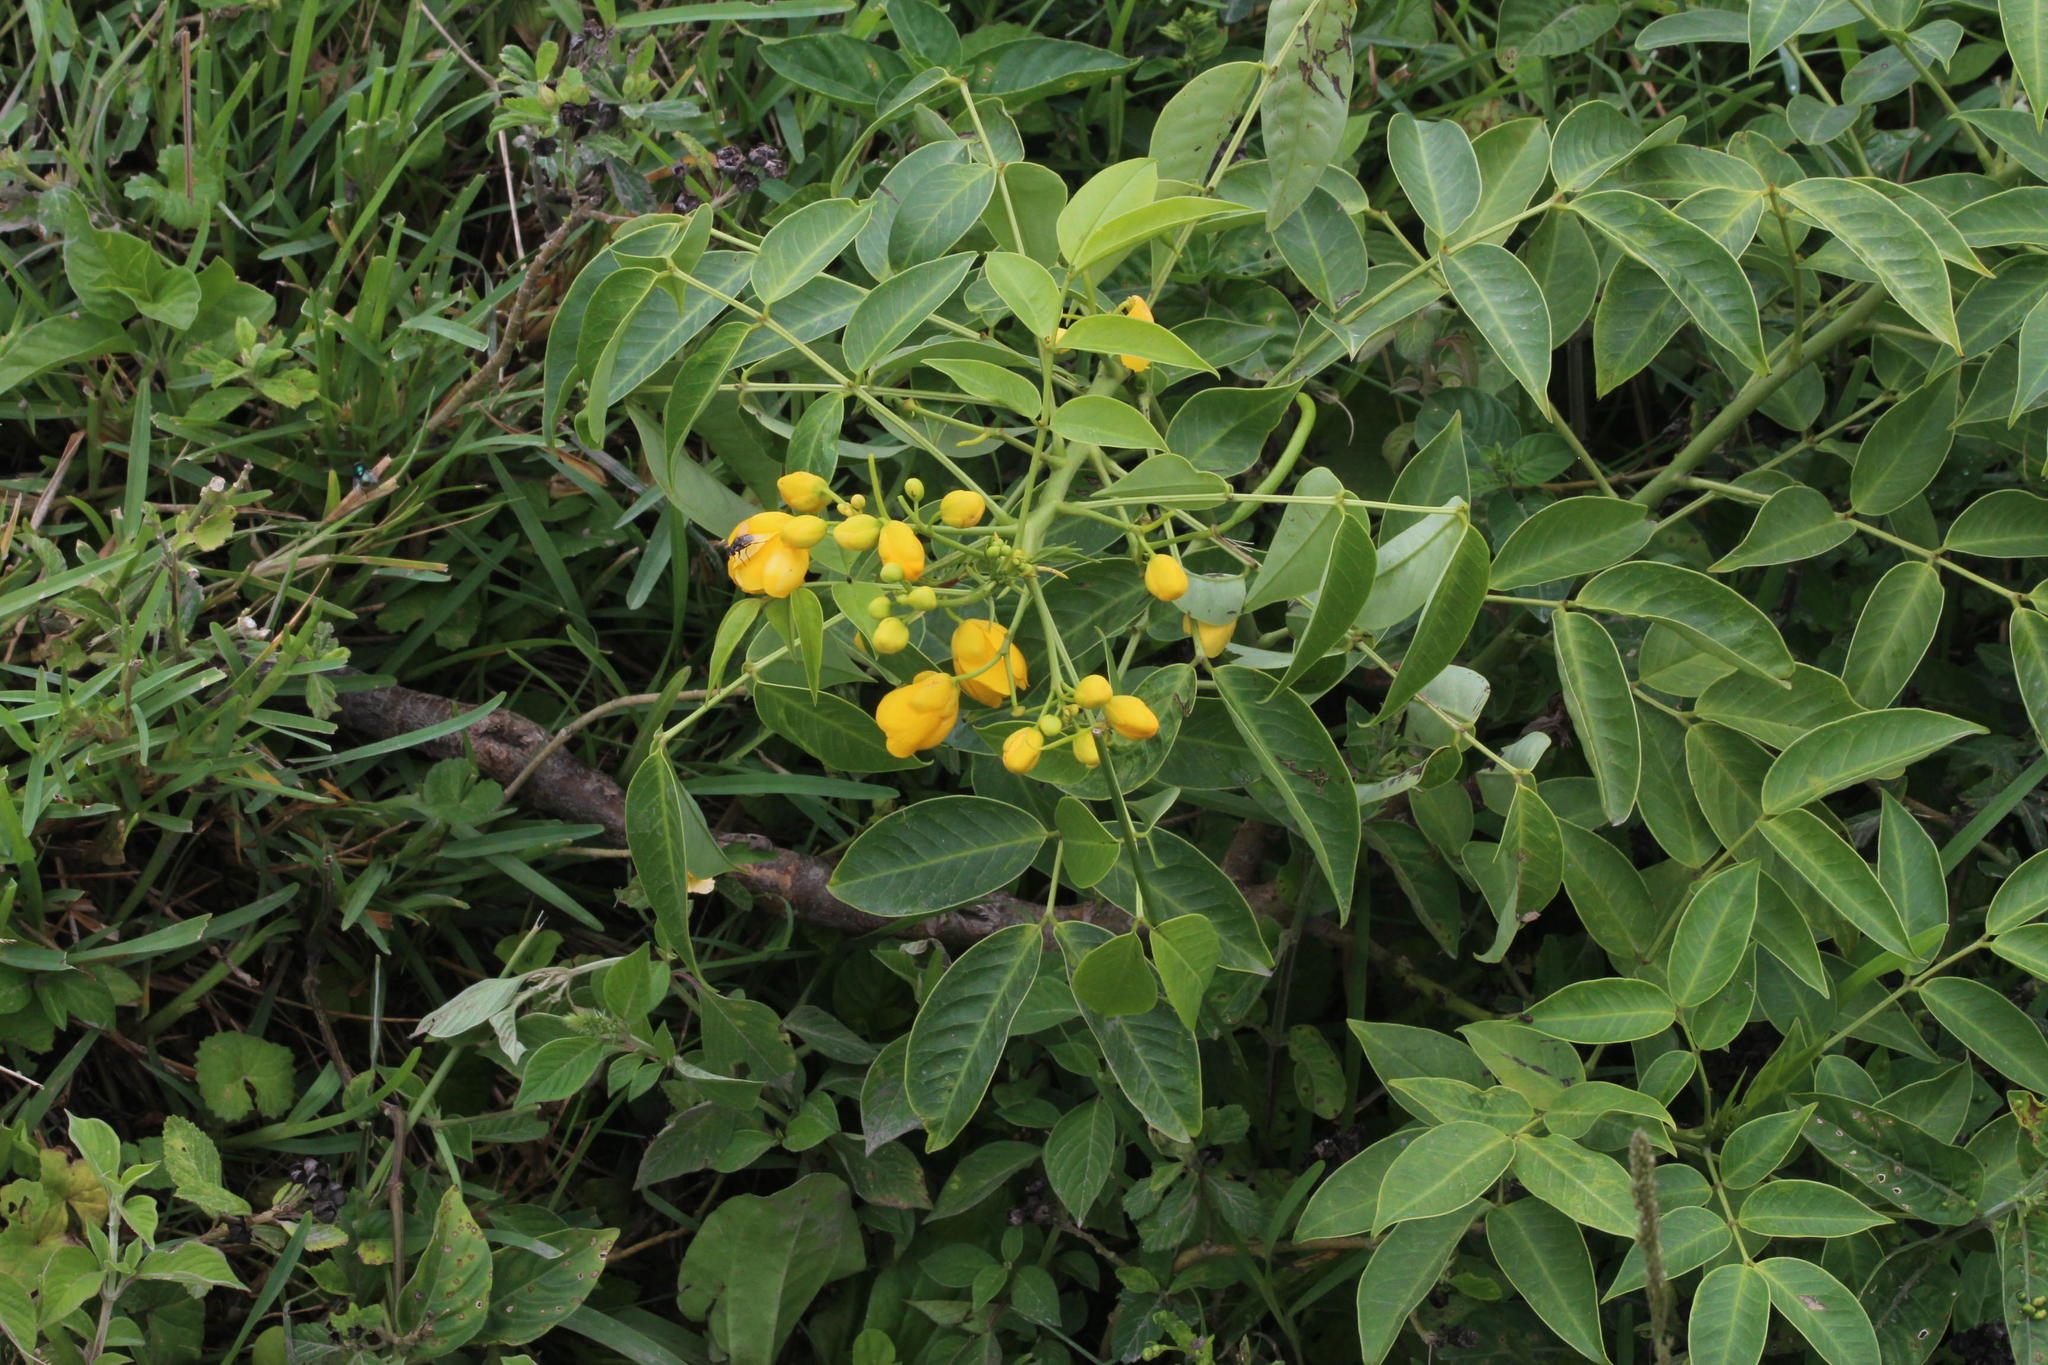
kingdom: Plantae
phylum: Tracheophyta
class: Magnoliopsida
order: Fabales
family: Fabaceae
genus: Senna
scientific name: Senna septemtrionalis
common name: Arsenic bush
